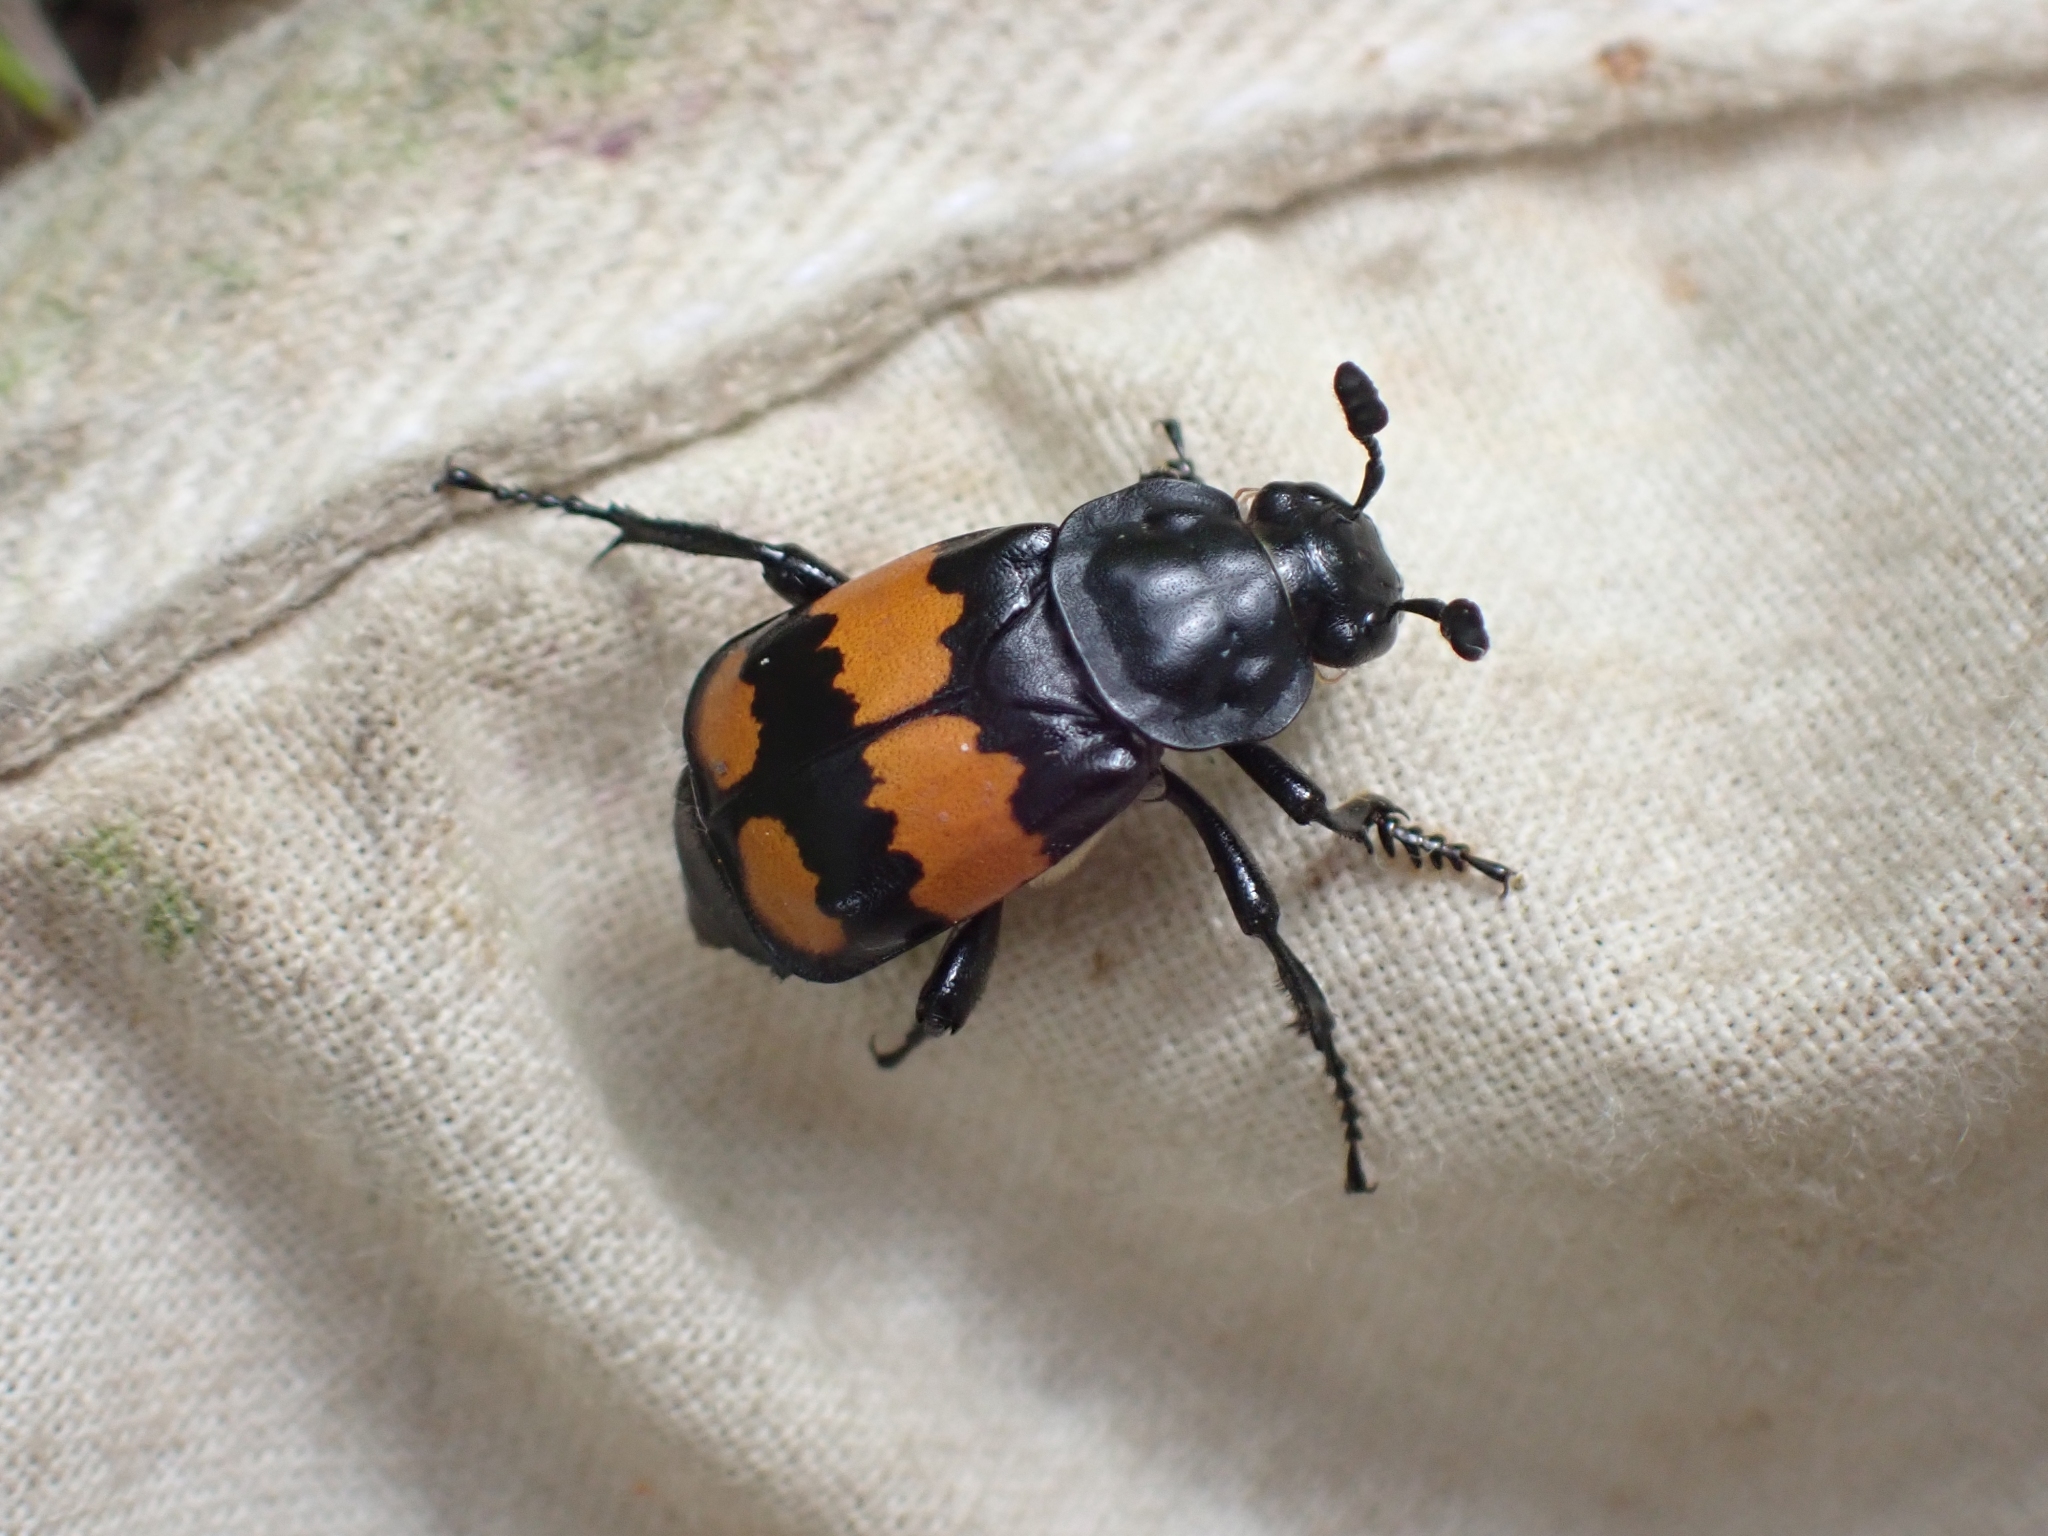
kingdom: Animalia
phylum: Arthropoda
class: Insecta
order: Coleoptera
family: Staphylinidae
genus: Nicrophorus
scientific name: Nicrophorus defodiens
